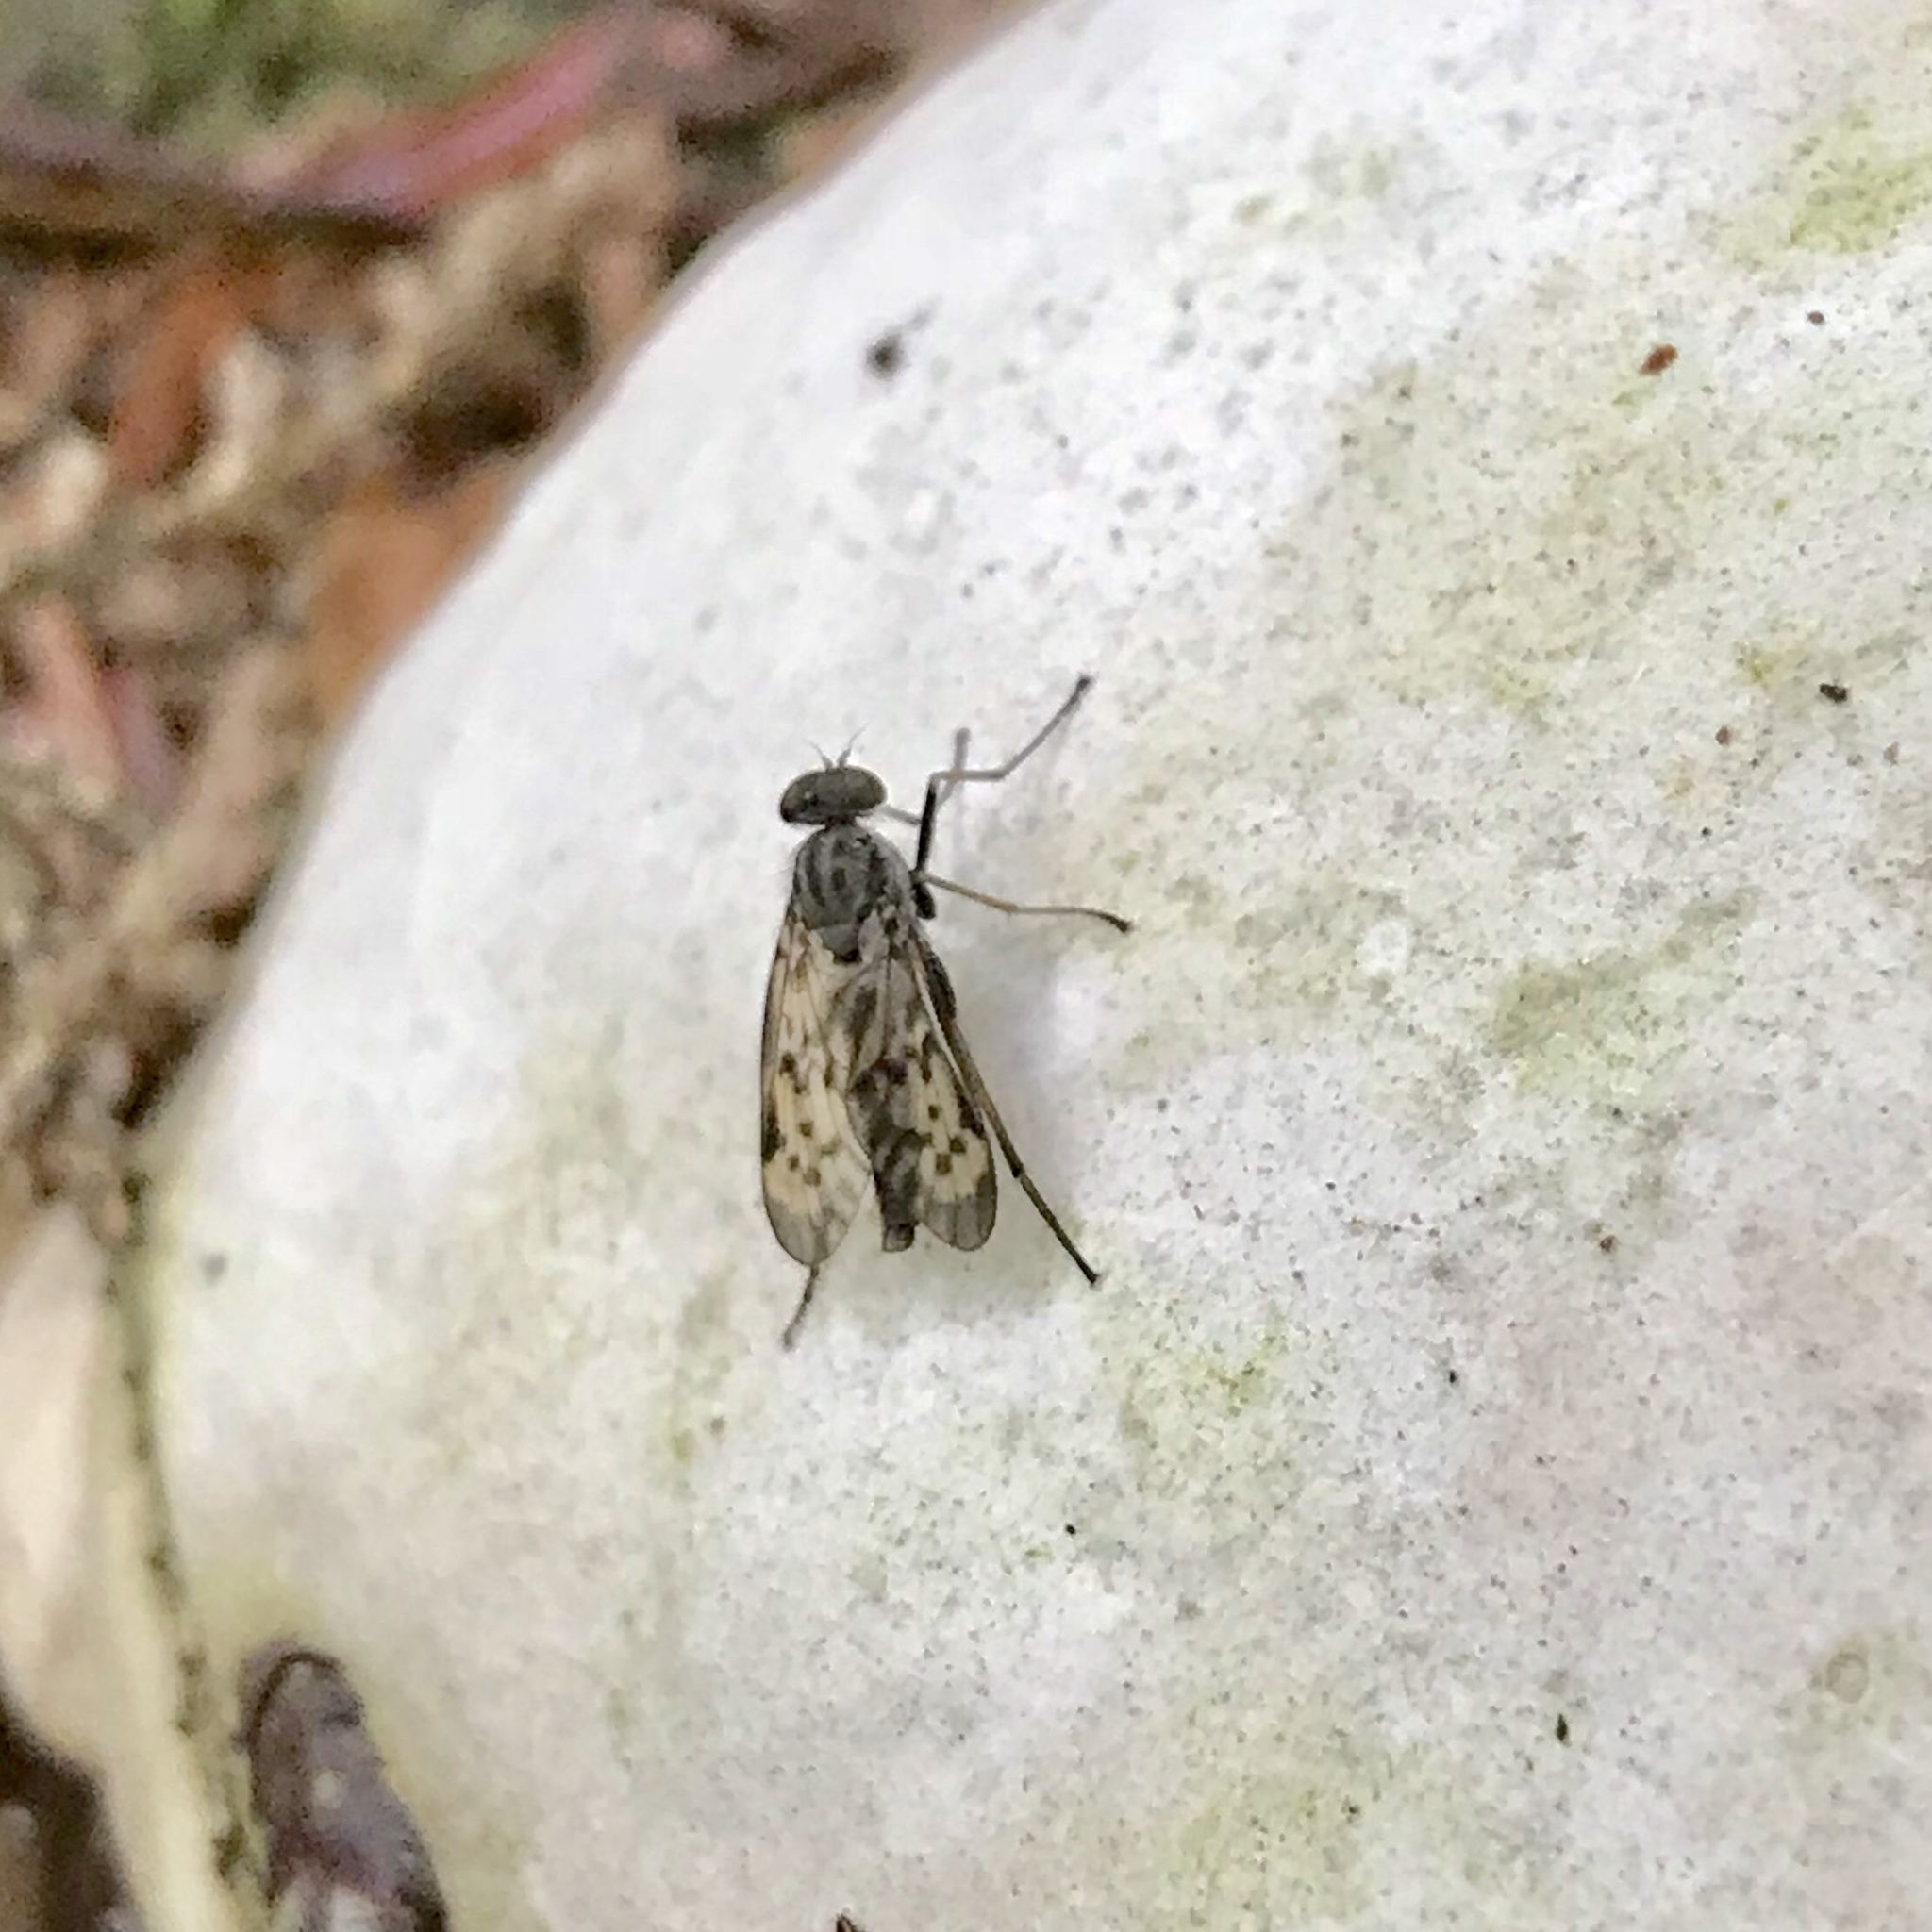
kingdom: Animalia
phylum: Arthropoda
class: Insecta
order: Diptera
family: Rhagionidae
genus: Rhagio
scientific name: Rhagio punctipennis
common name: Lesser variegated snipe fly
